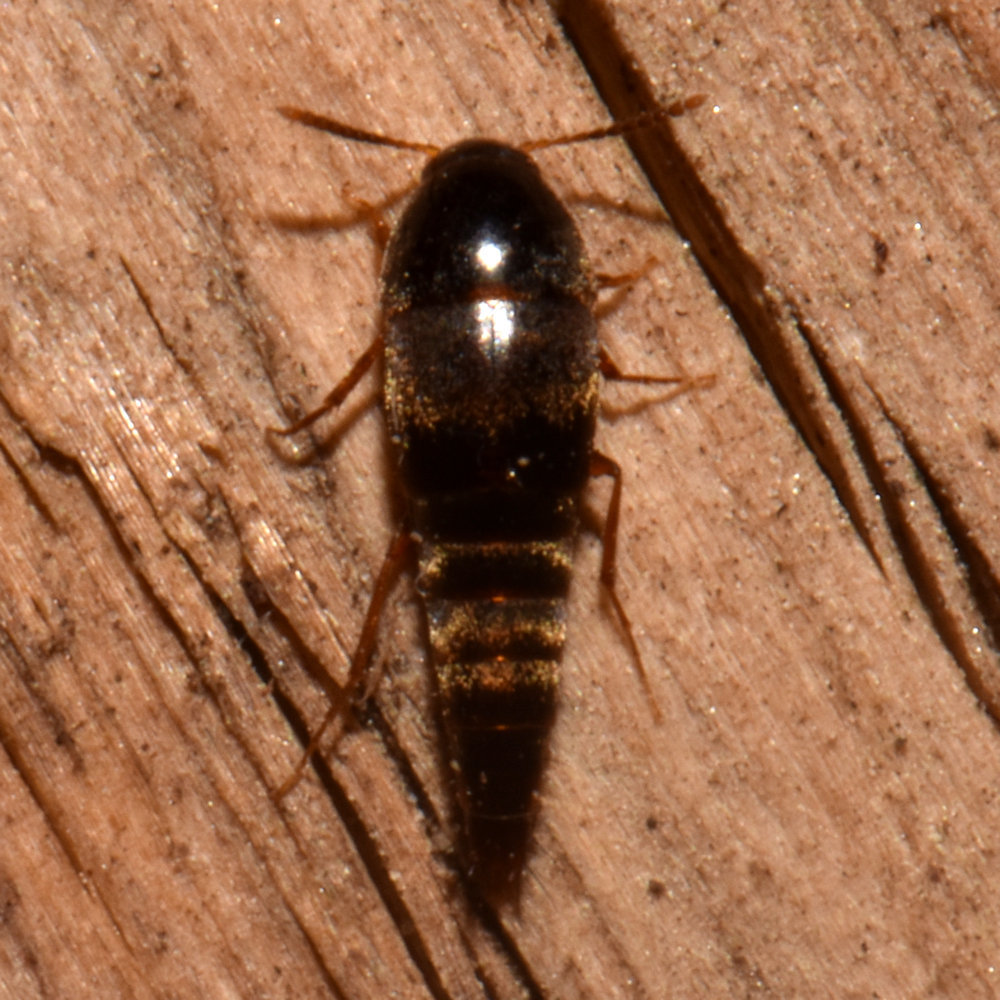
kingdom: Animalia
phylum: Arthropoda
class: Insecta
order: Coleoptera
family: Staphylinidae
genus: Sepedophilus
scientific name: Sepedophilus testaceus
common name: Staph beetle
